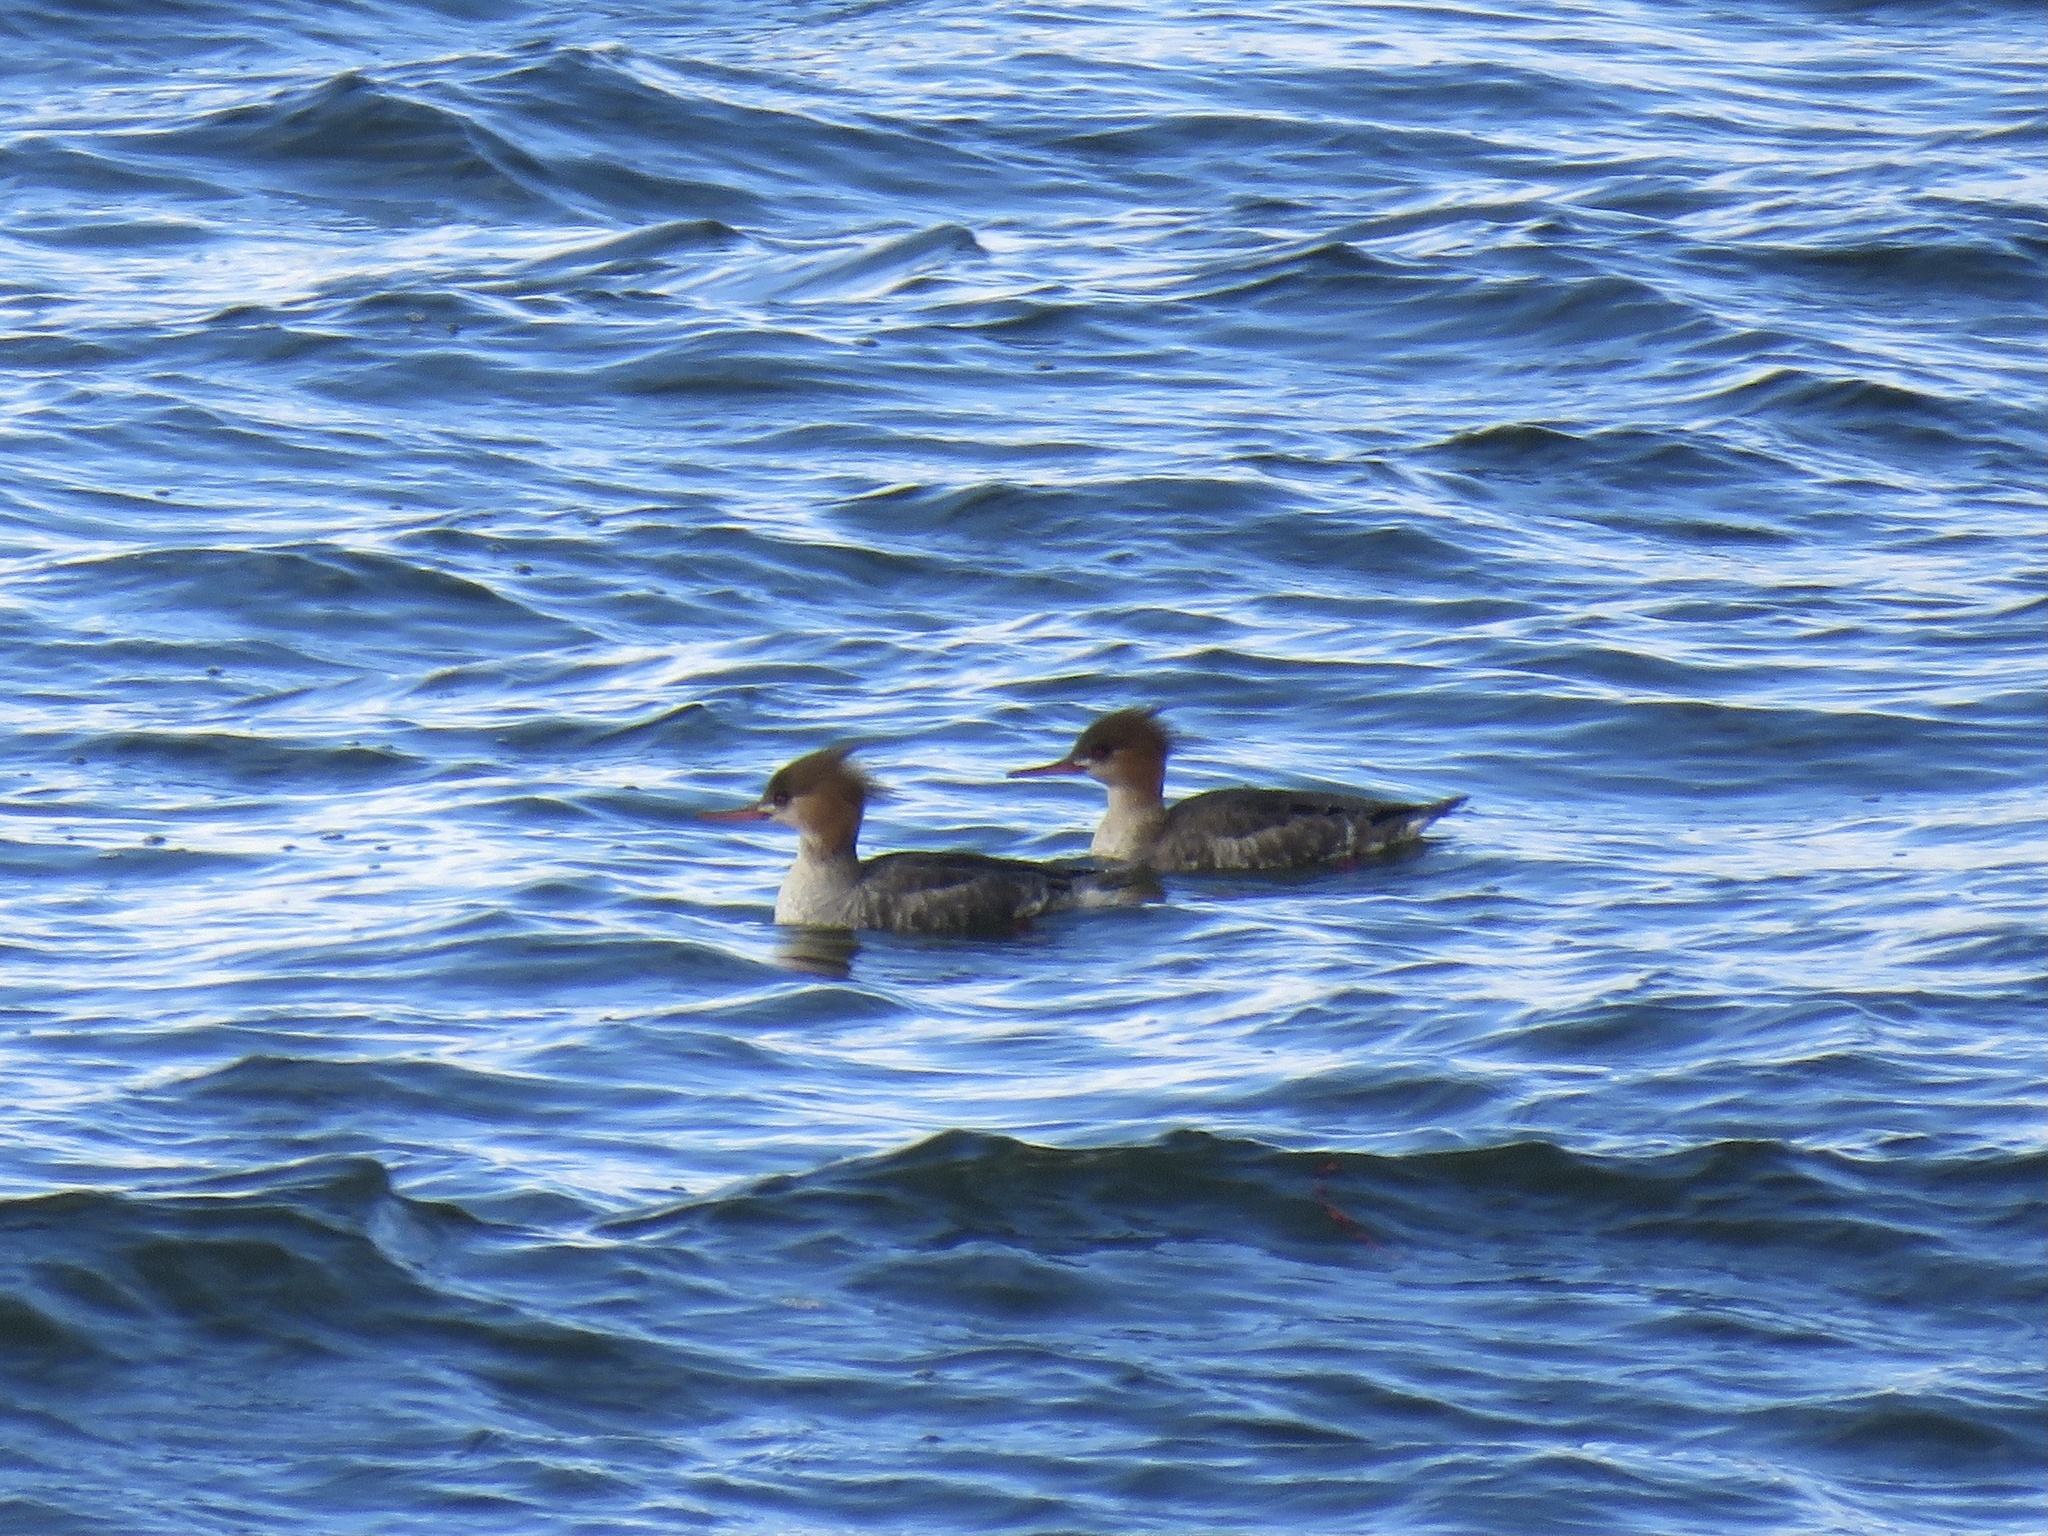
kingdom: Animalia
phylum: Chordata
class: Aves
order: Anseriformes
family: Anatidae
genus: Mergus
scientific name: Mergus serrator
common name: Red-breasted merganser
